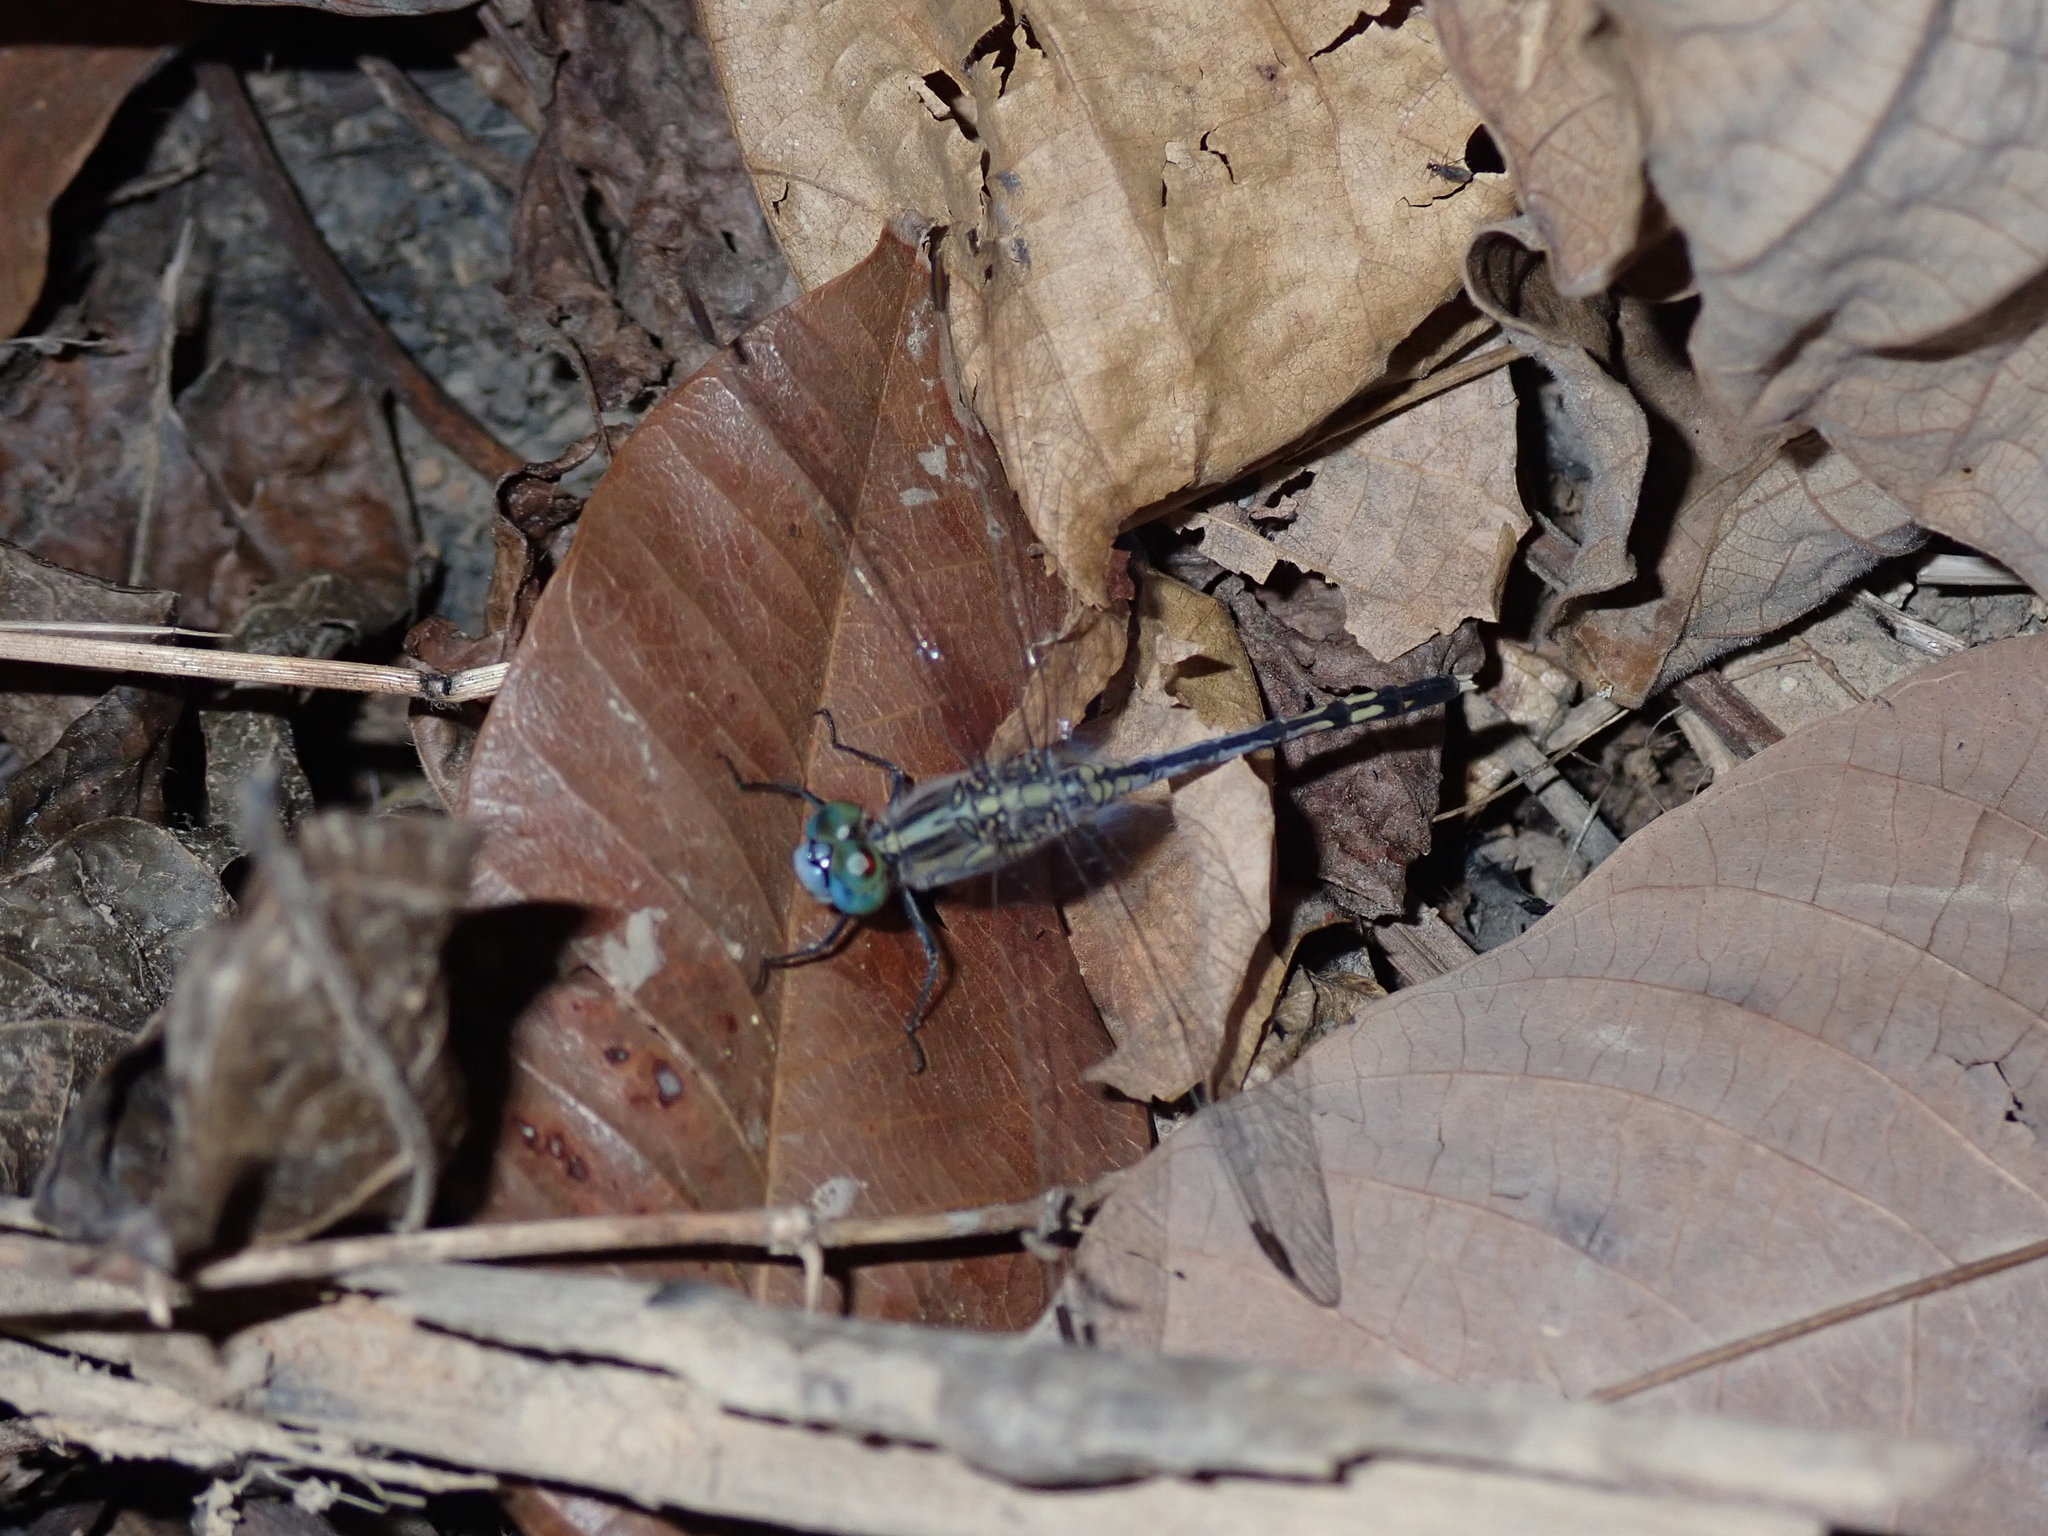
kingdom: Animalia
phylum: Arthropoda
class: Insecta
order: Odonata
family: Libellulidae
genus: Diplacodes
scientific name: Diplacodes trivialis
